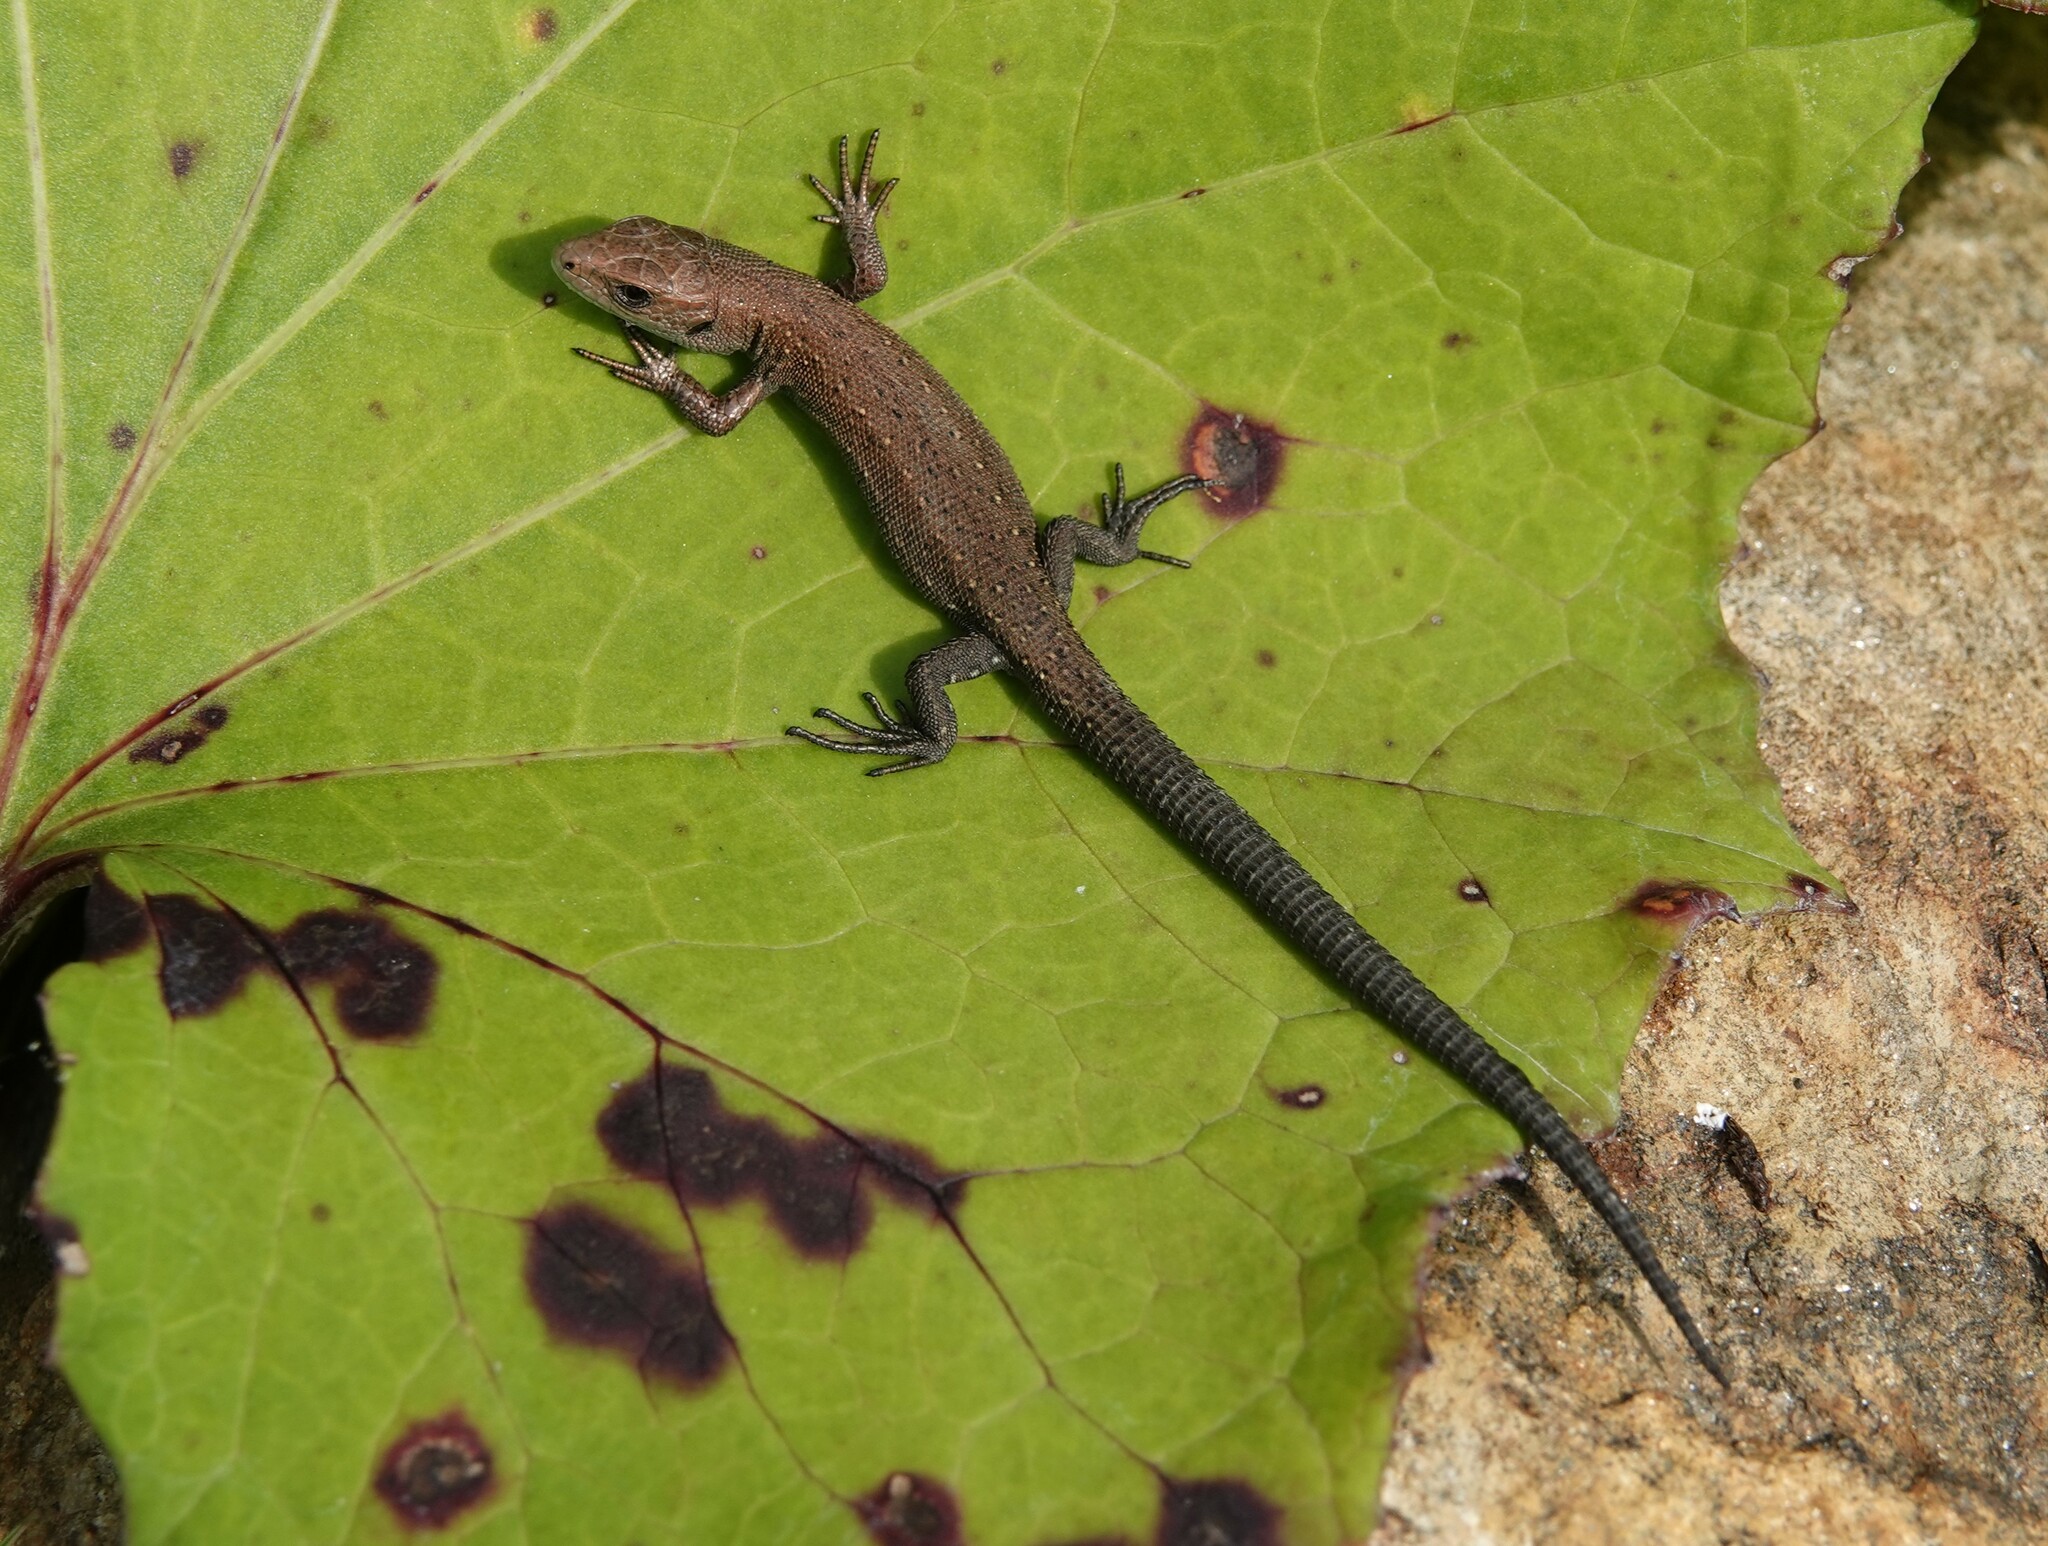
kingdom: Animalia
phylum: Chordata
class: Squamata
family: Lacertidae
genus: Zootoca
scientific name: Zootoca vivipara
